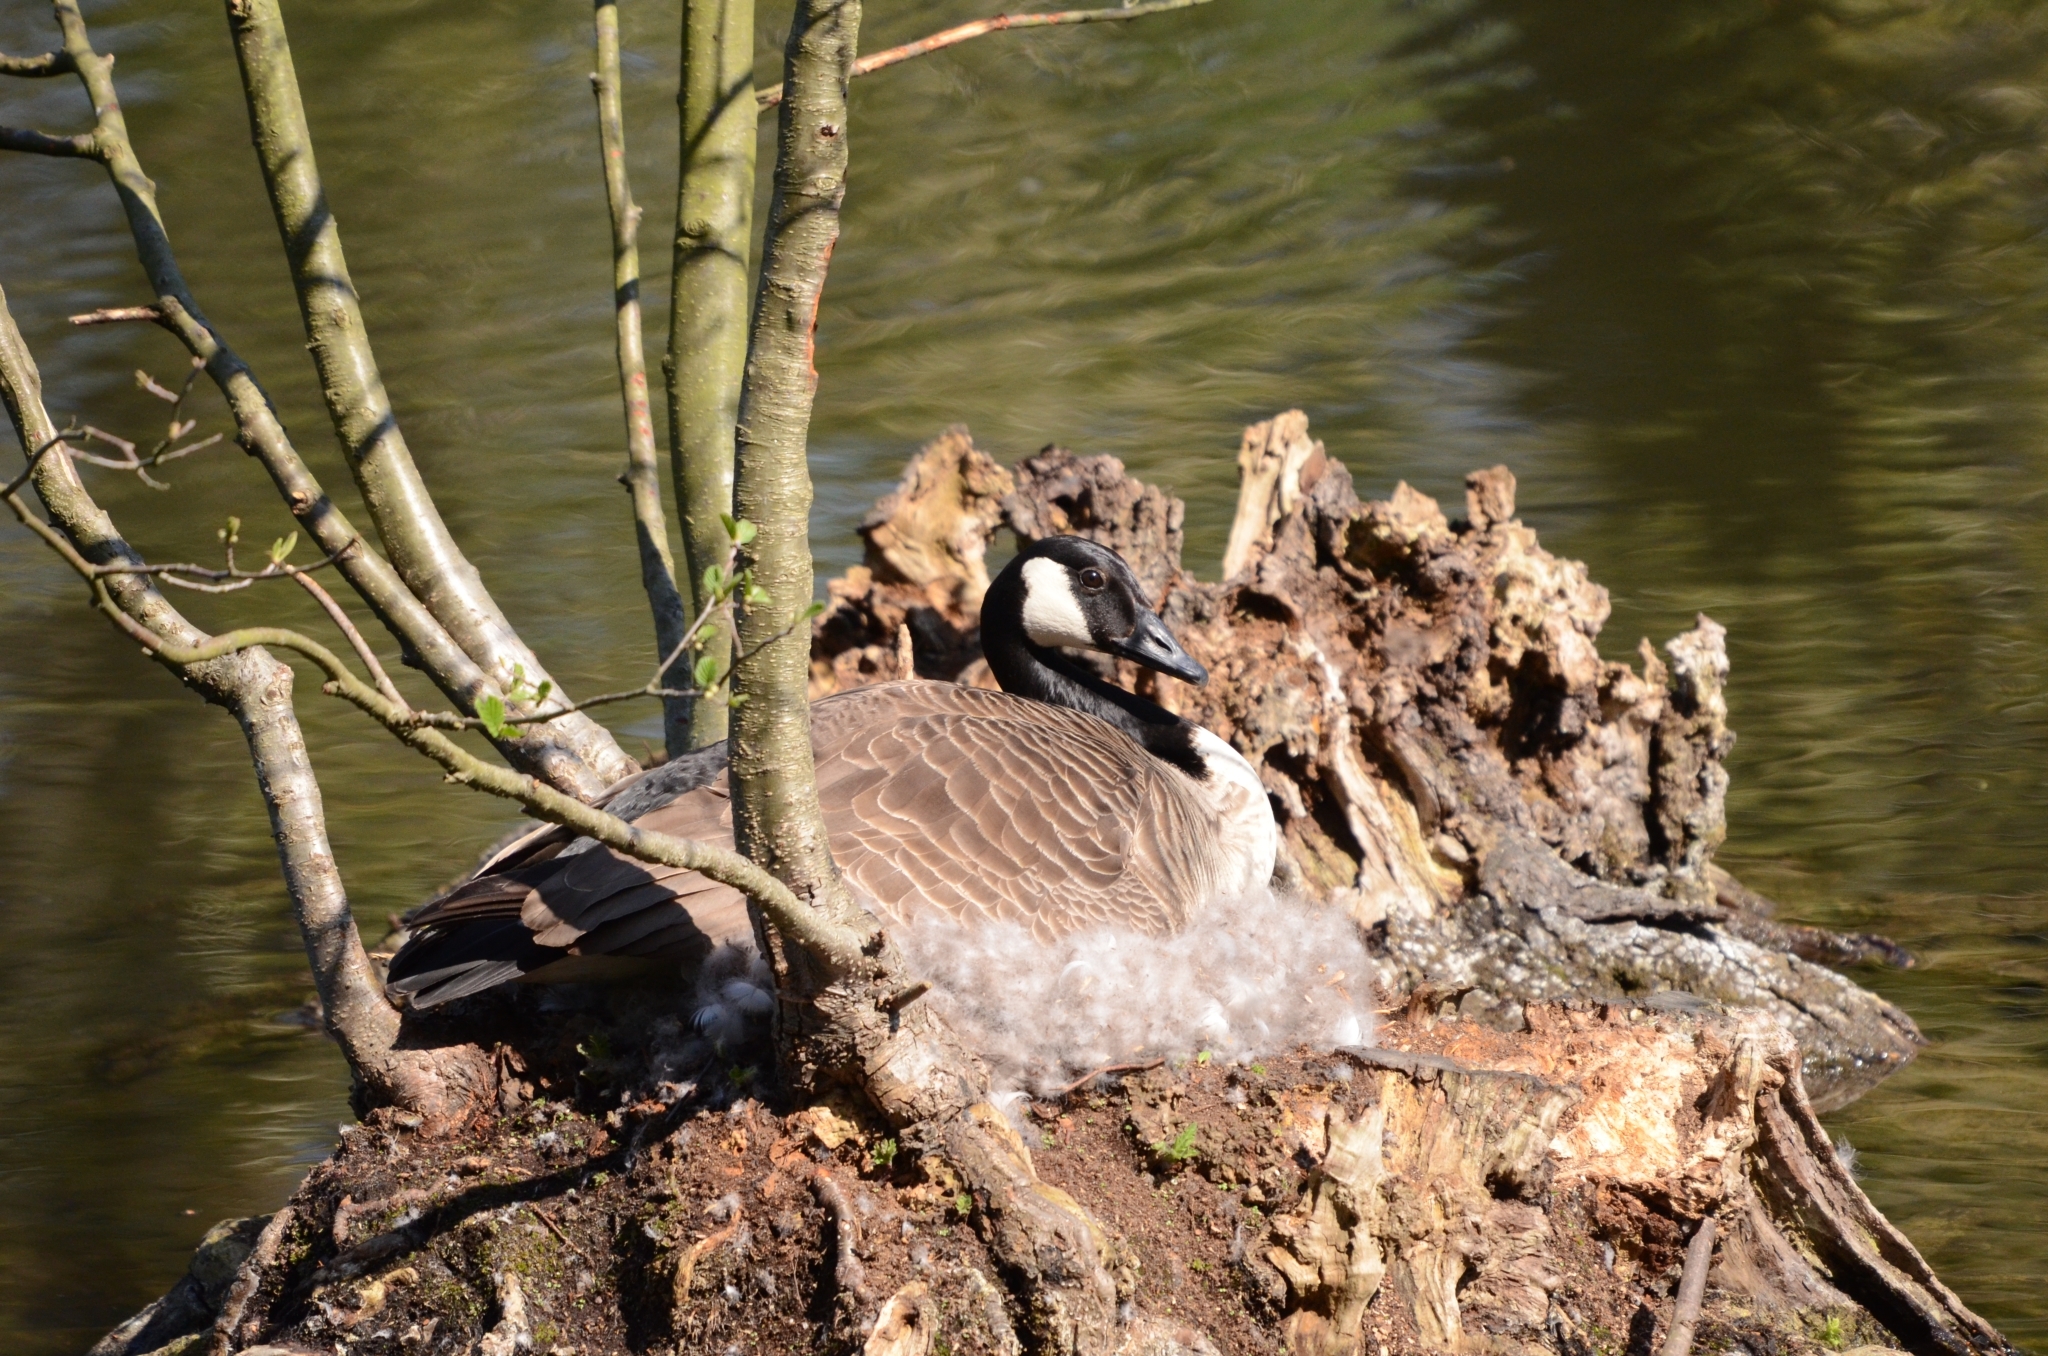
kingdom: Animalia
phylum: Chordata
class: Aves
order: Anseriformes
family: Anatidae
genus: Branta
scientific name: Branta canadensis
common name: Canada goose
